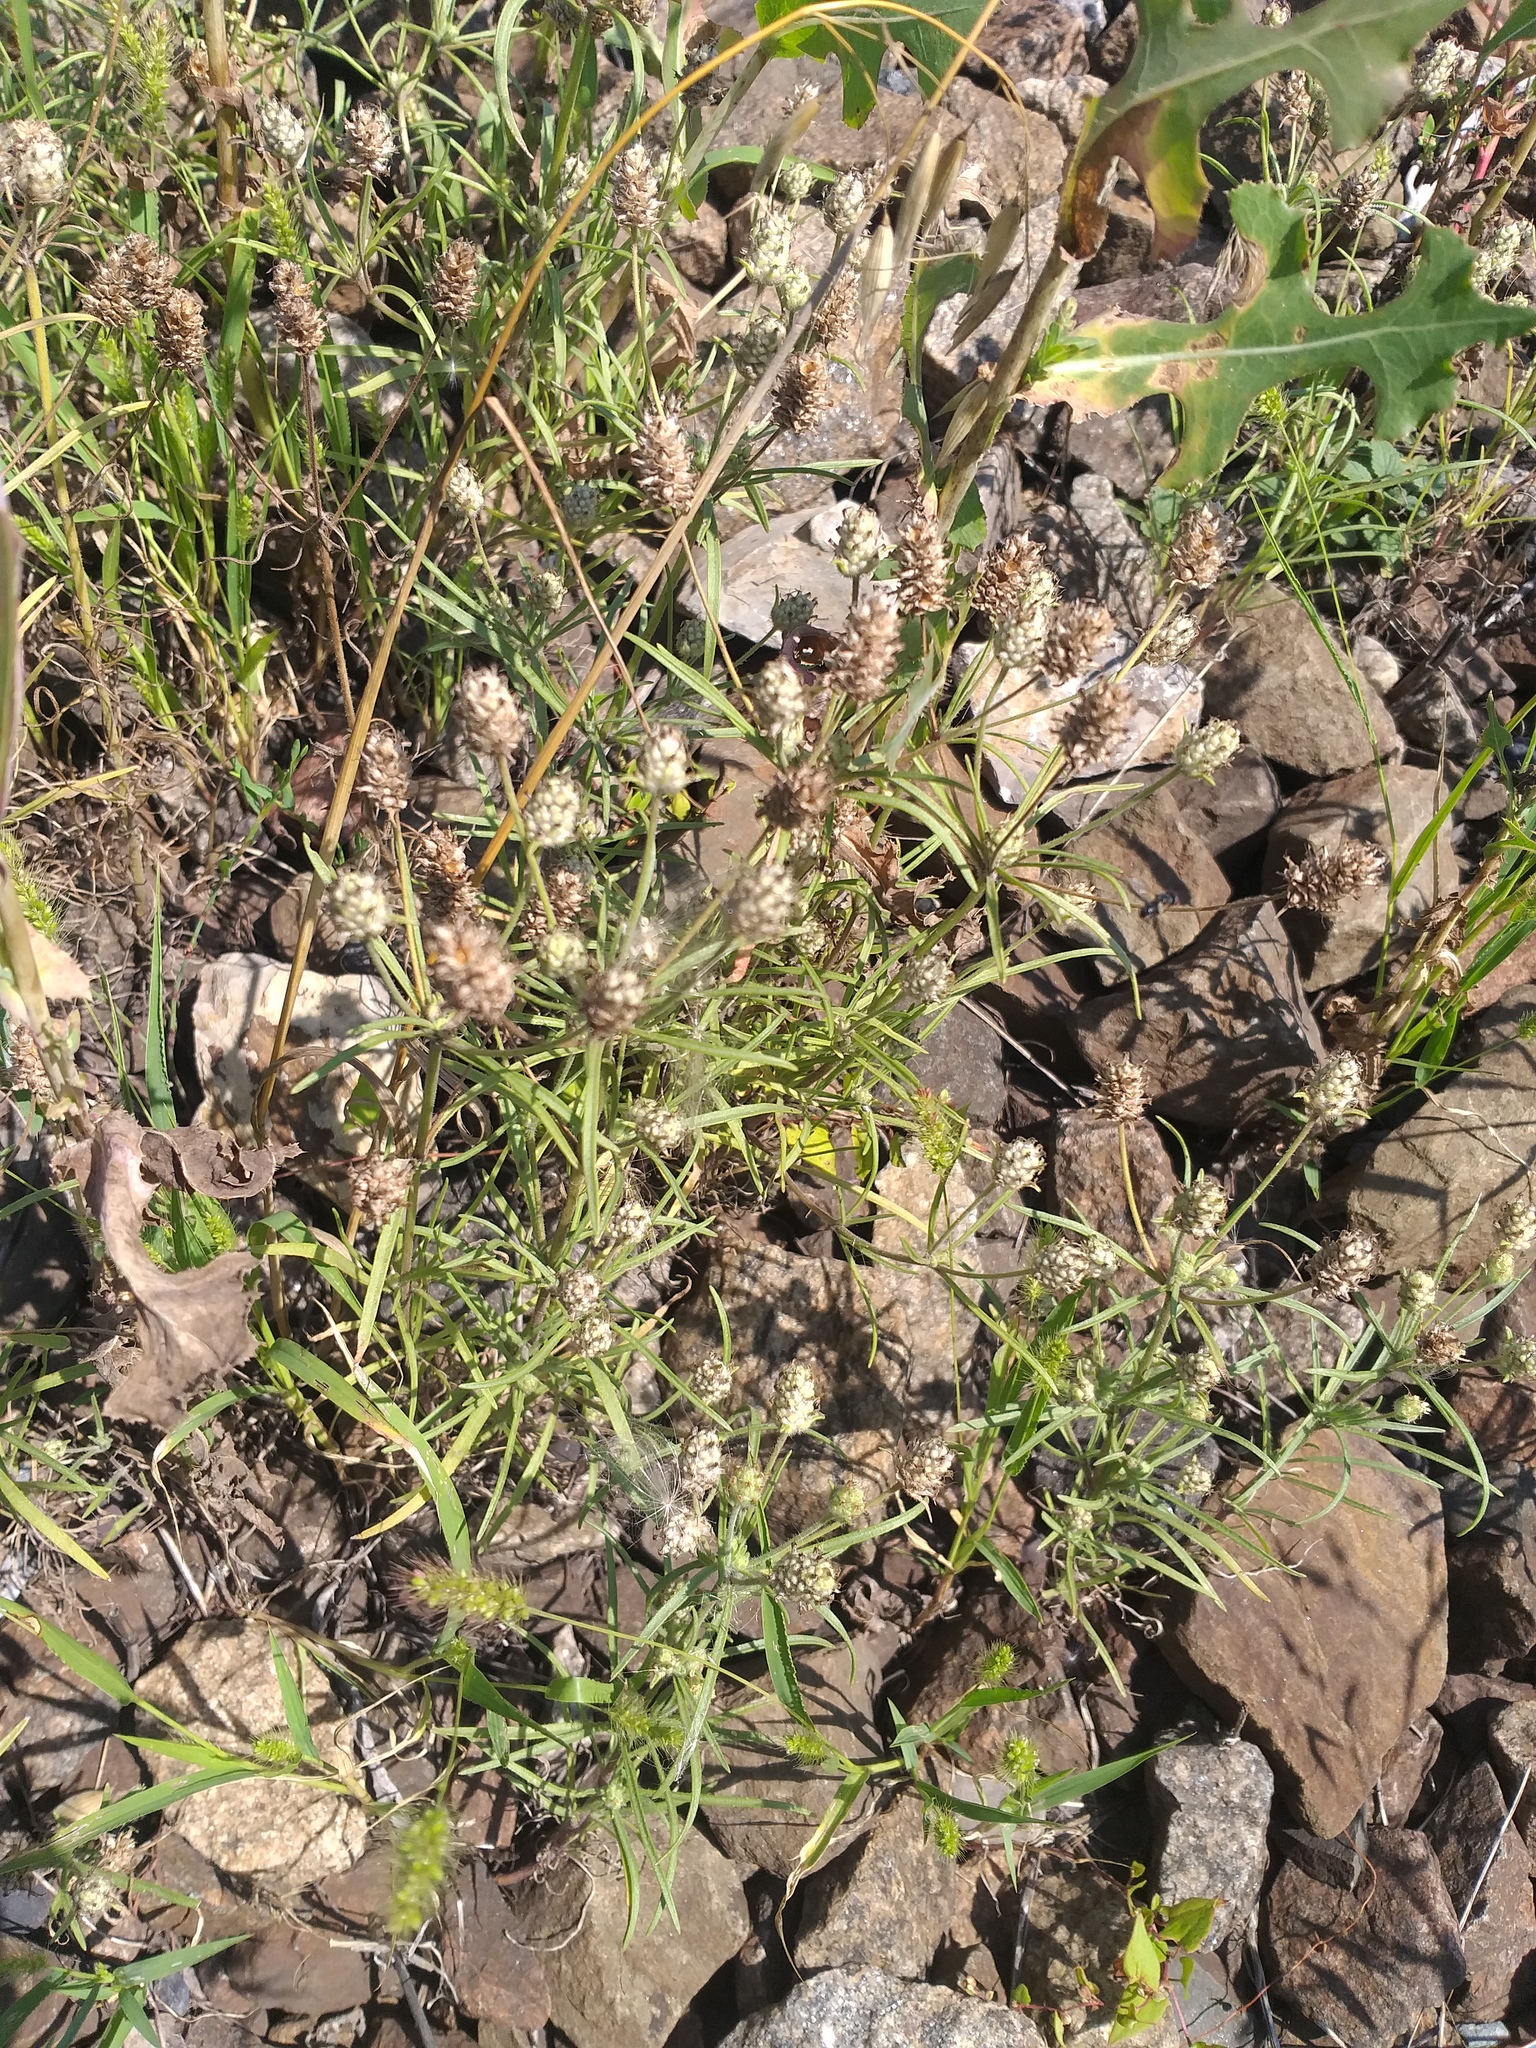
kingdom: Plantae
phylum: Tracheophyta
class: Magnoliopsida
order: Lamiales
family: Plantaginaceae
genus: Plantago
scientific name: Plantago arenaria
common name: Branched plantain
